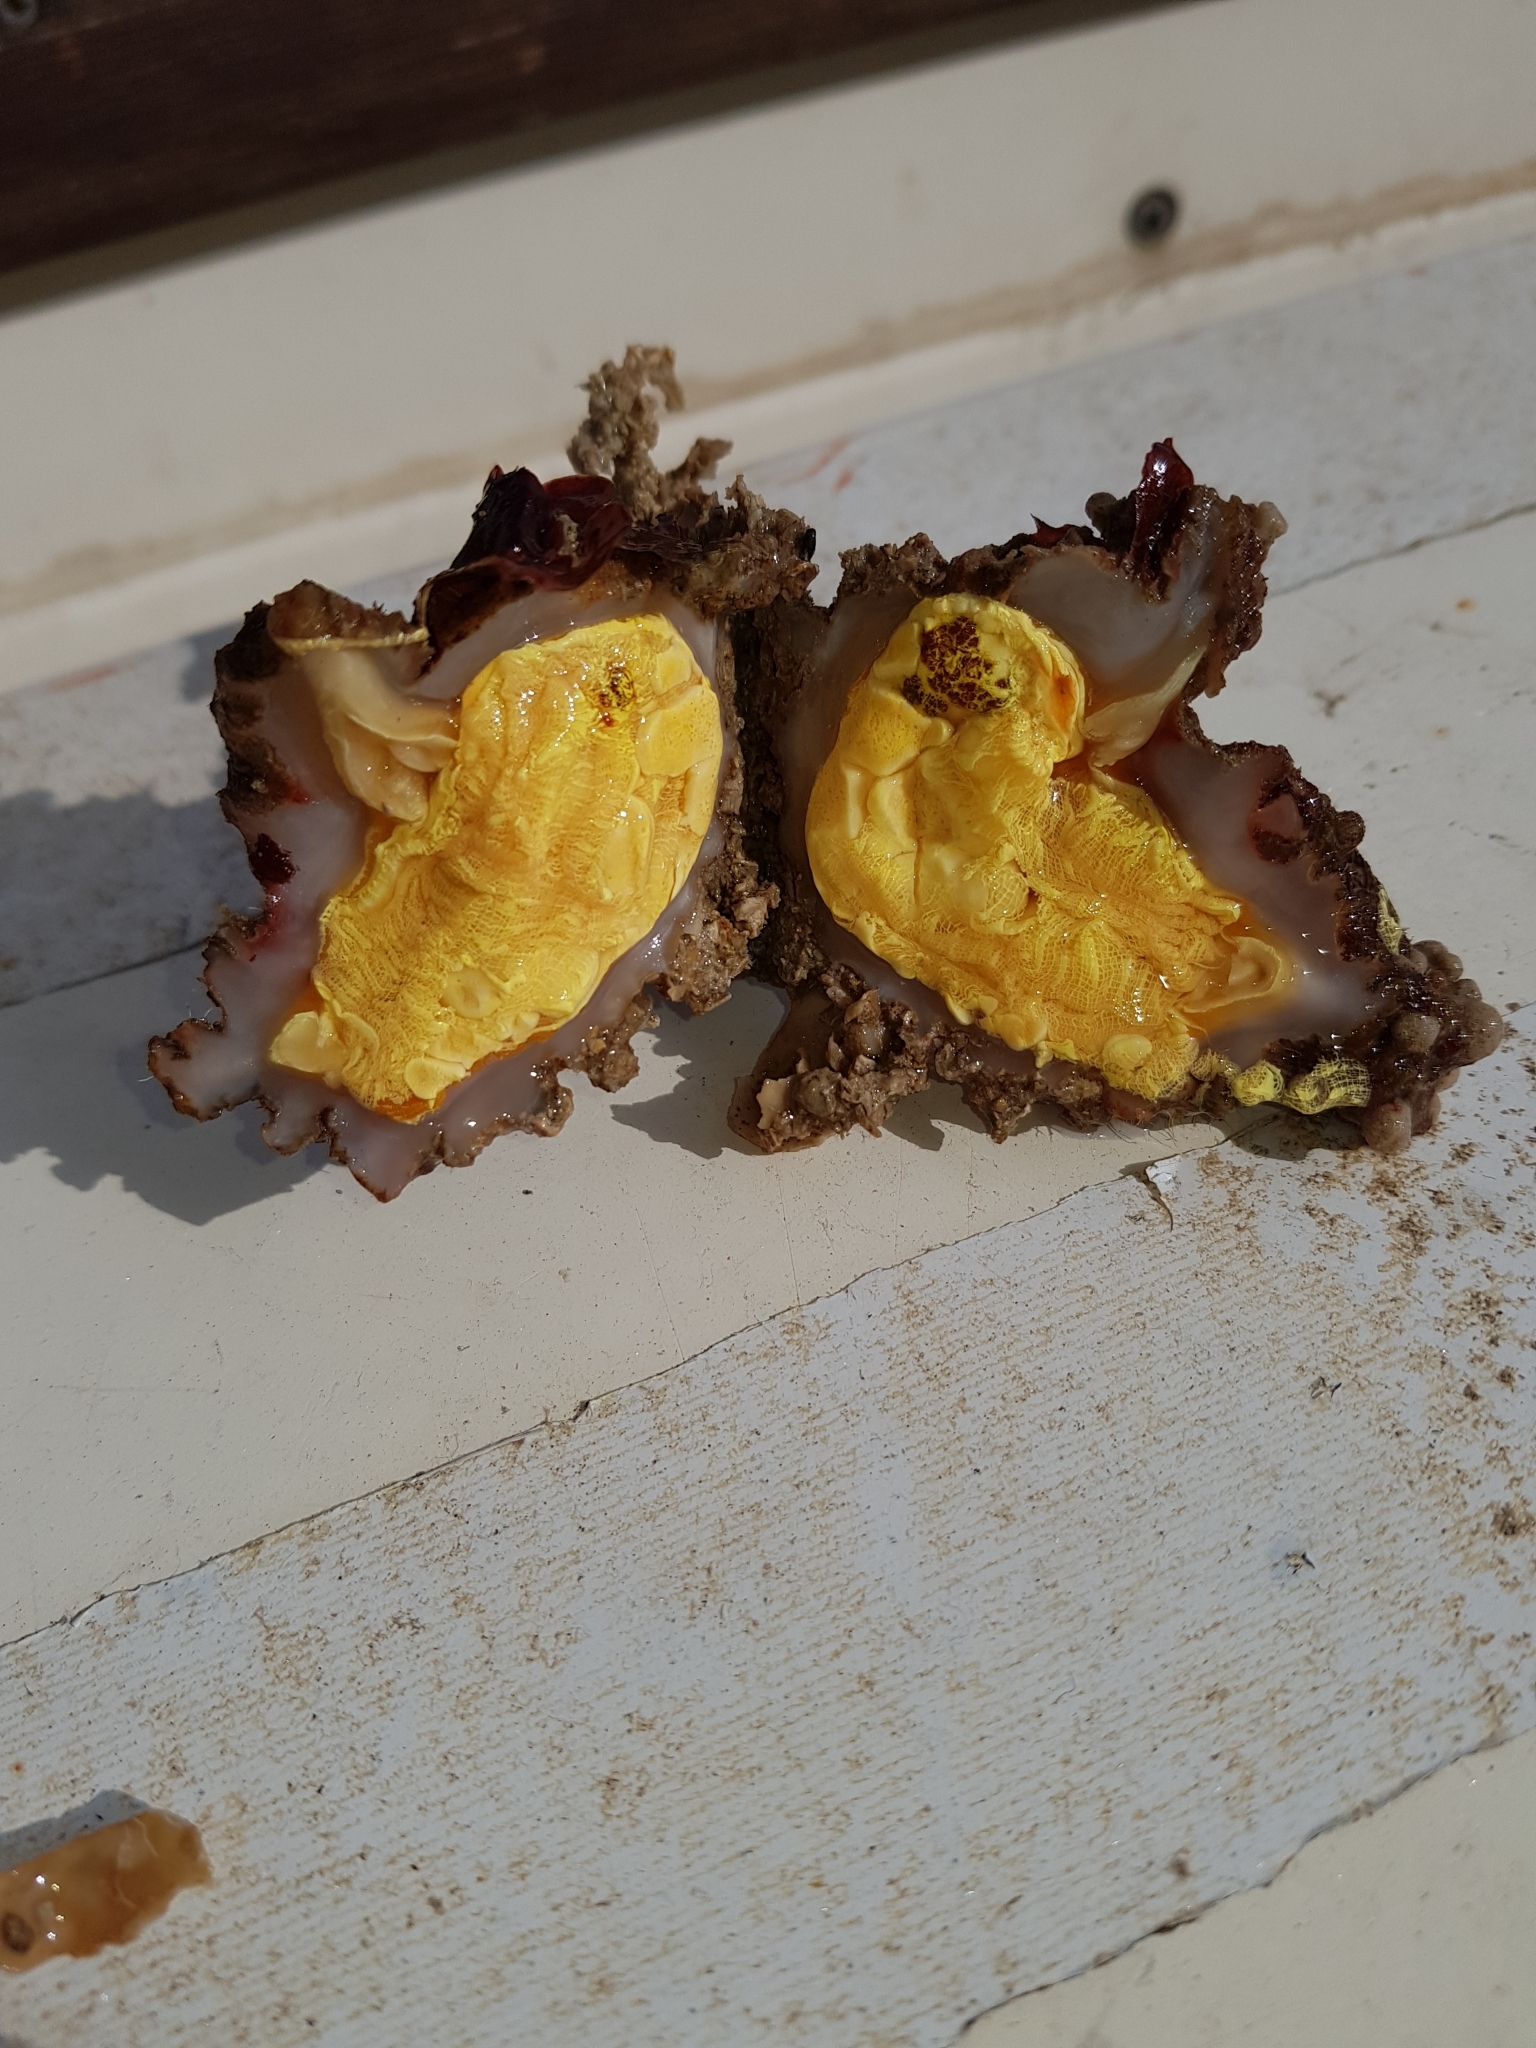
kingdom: Animalia
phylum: Chordata
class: Ascidiacea
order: Stolidobranchia
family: Pyuridae
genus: Microcosmus
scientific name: Microcosmus sabatieri
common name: Grooved sea squirt
